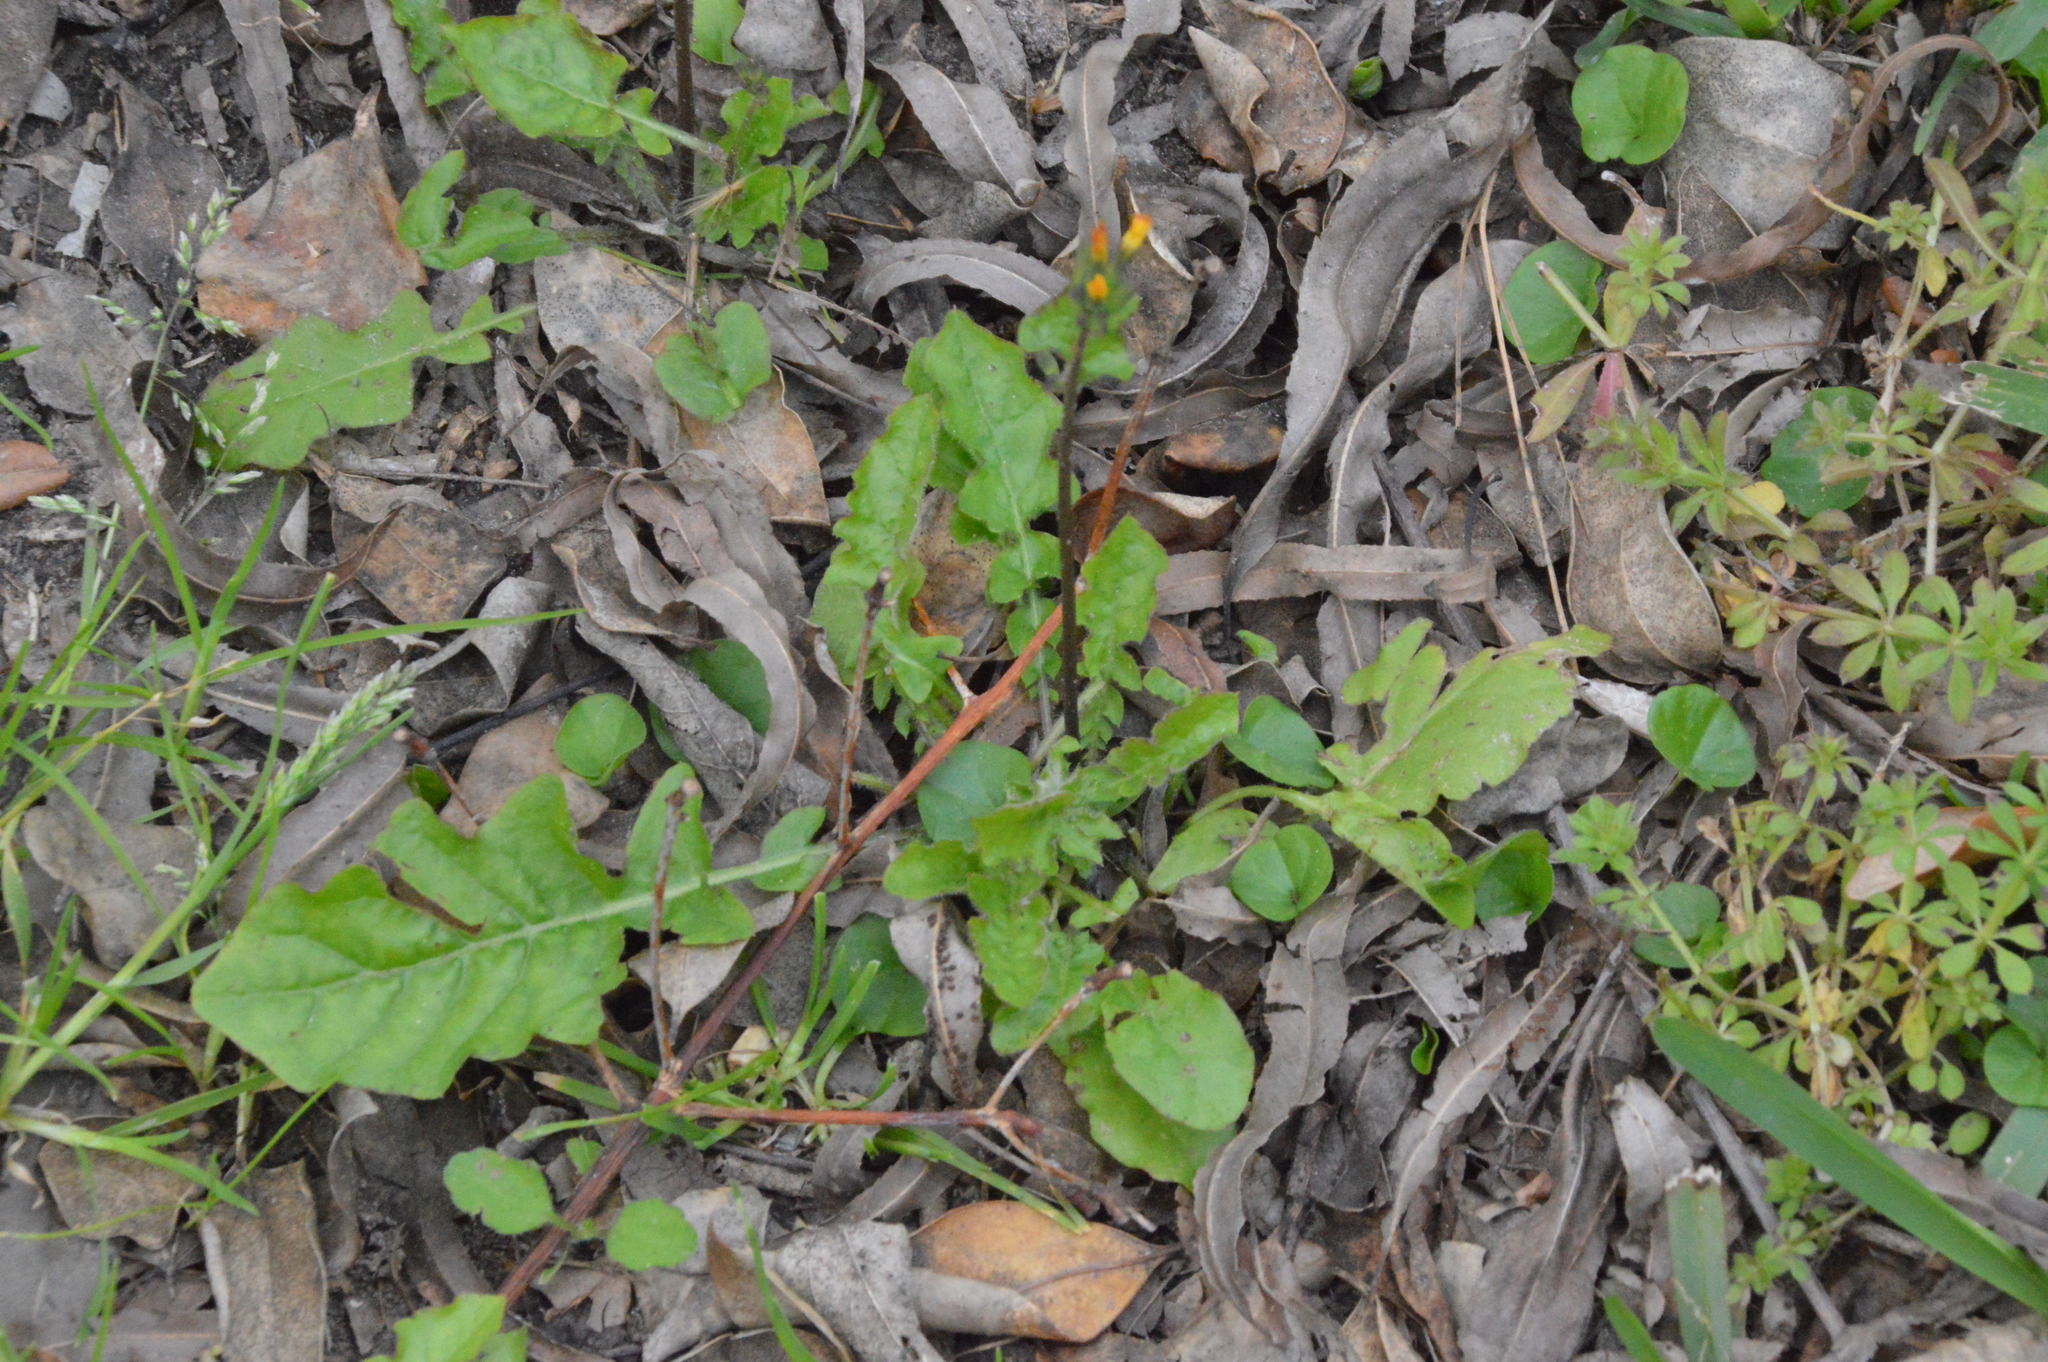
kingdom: Plantae
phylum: Tracheophyta
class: Magnoliopsida
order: Asterales
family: Asteraceae
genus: Youngia
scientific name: Youngia japonica
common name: Oriental false hawksbeard
